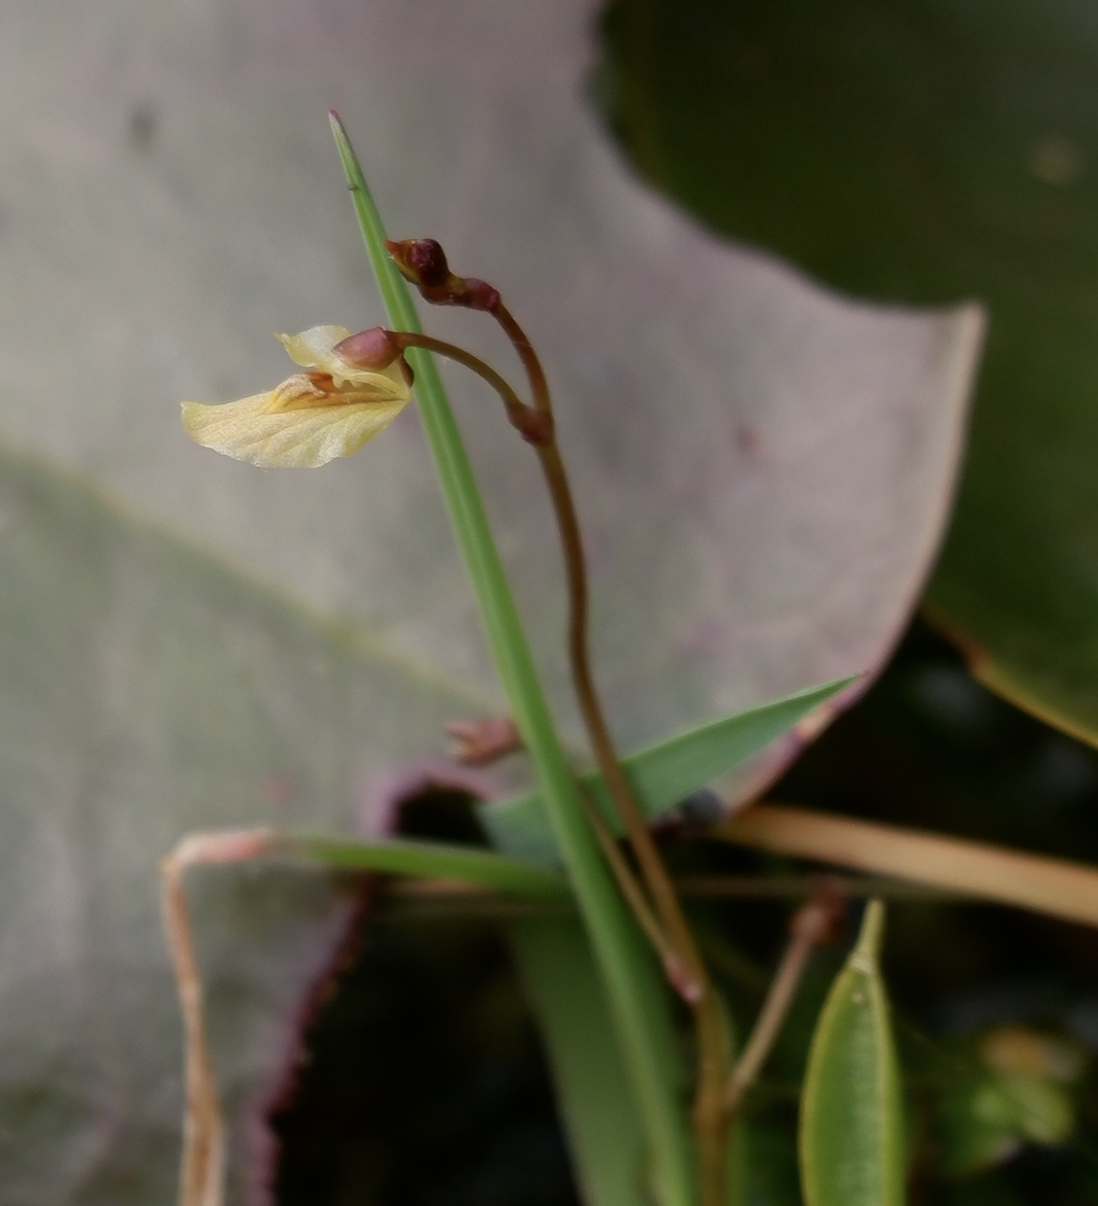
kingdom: Plantae
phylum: Tracheophyta
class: Magnoliopsida
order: Lamiales
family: Lentibulariaceae
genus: Utricularia
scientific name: Utricularia minor
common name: Lesser bladderwort
